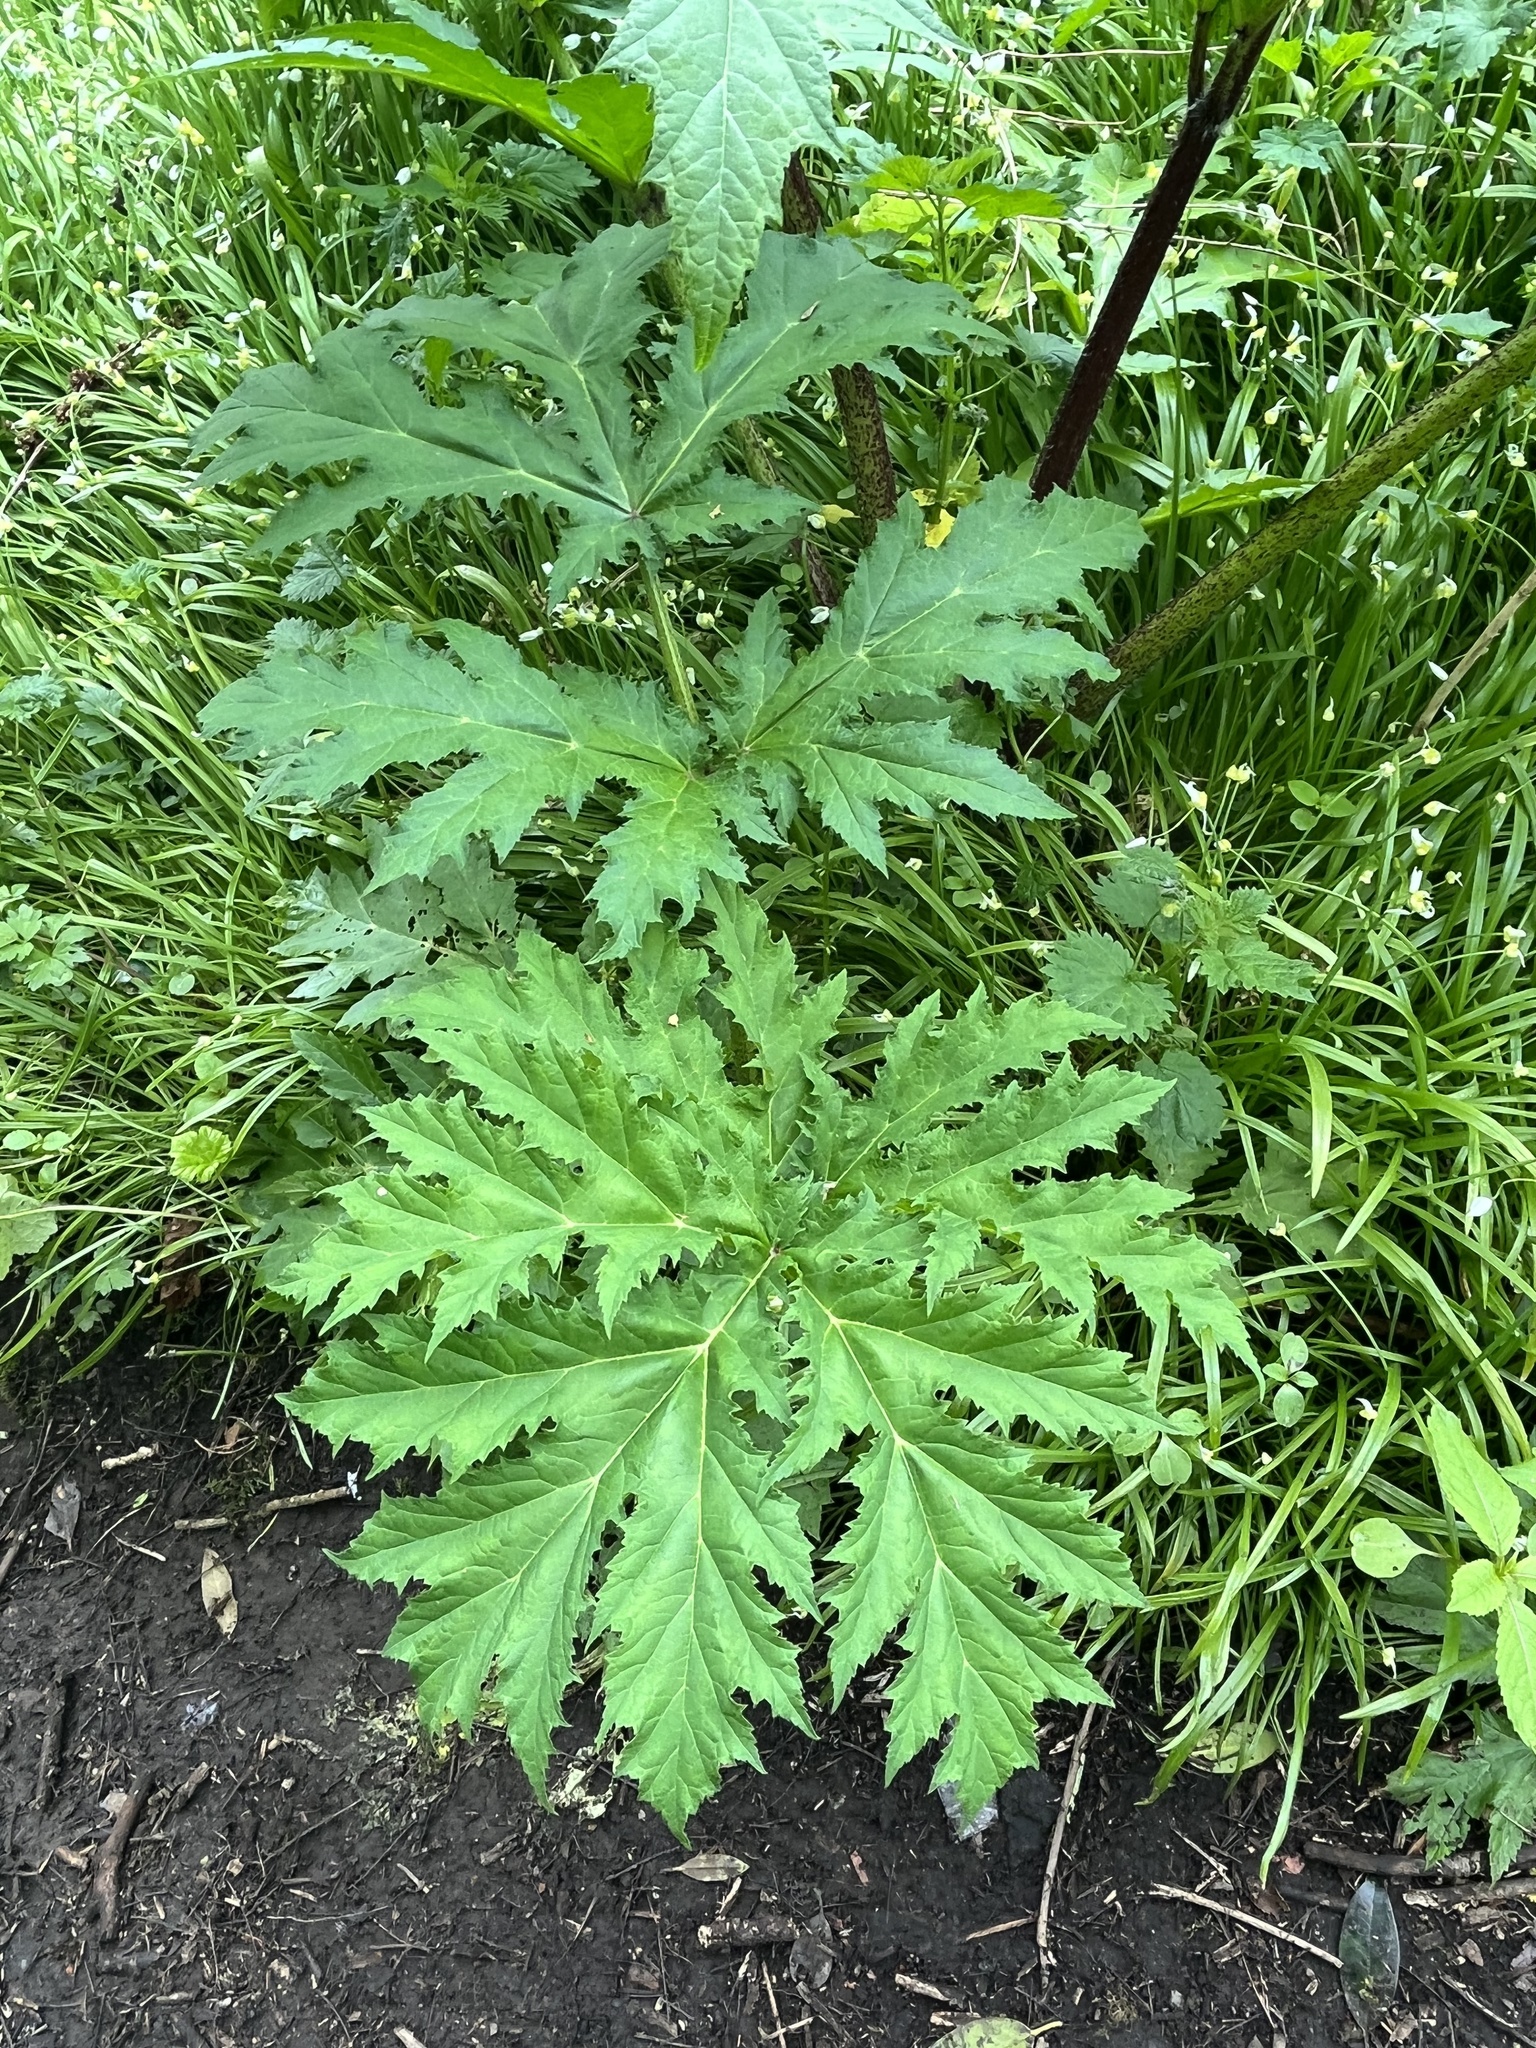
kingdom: Plantae
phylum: Tracheophyta
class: Magnoliopsida
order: Apiales
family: Apiaceae
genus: Heracleum
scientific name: Heracleum mantegazzianum
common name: Giant hogweed
